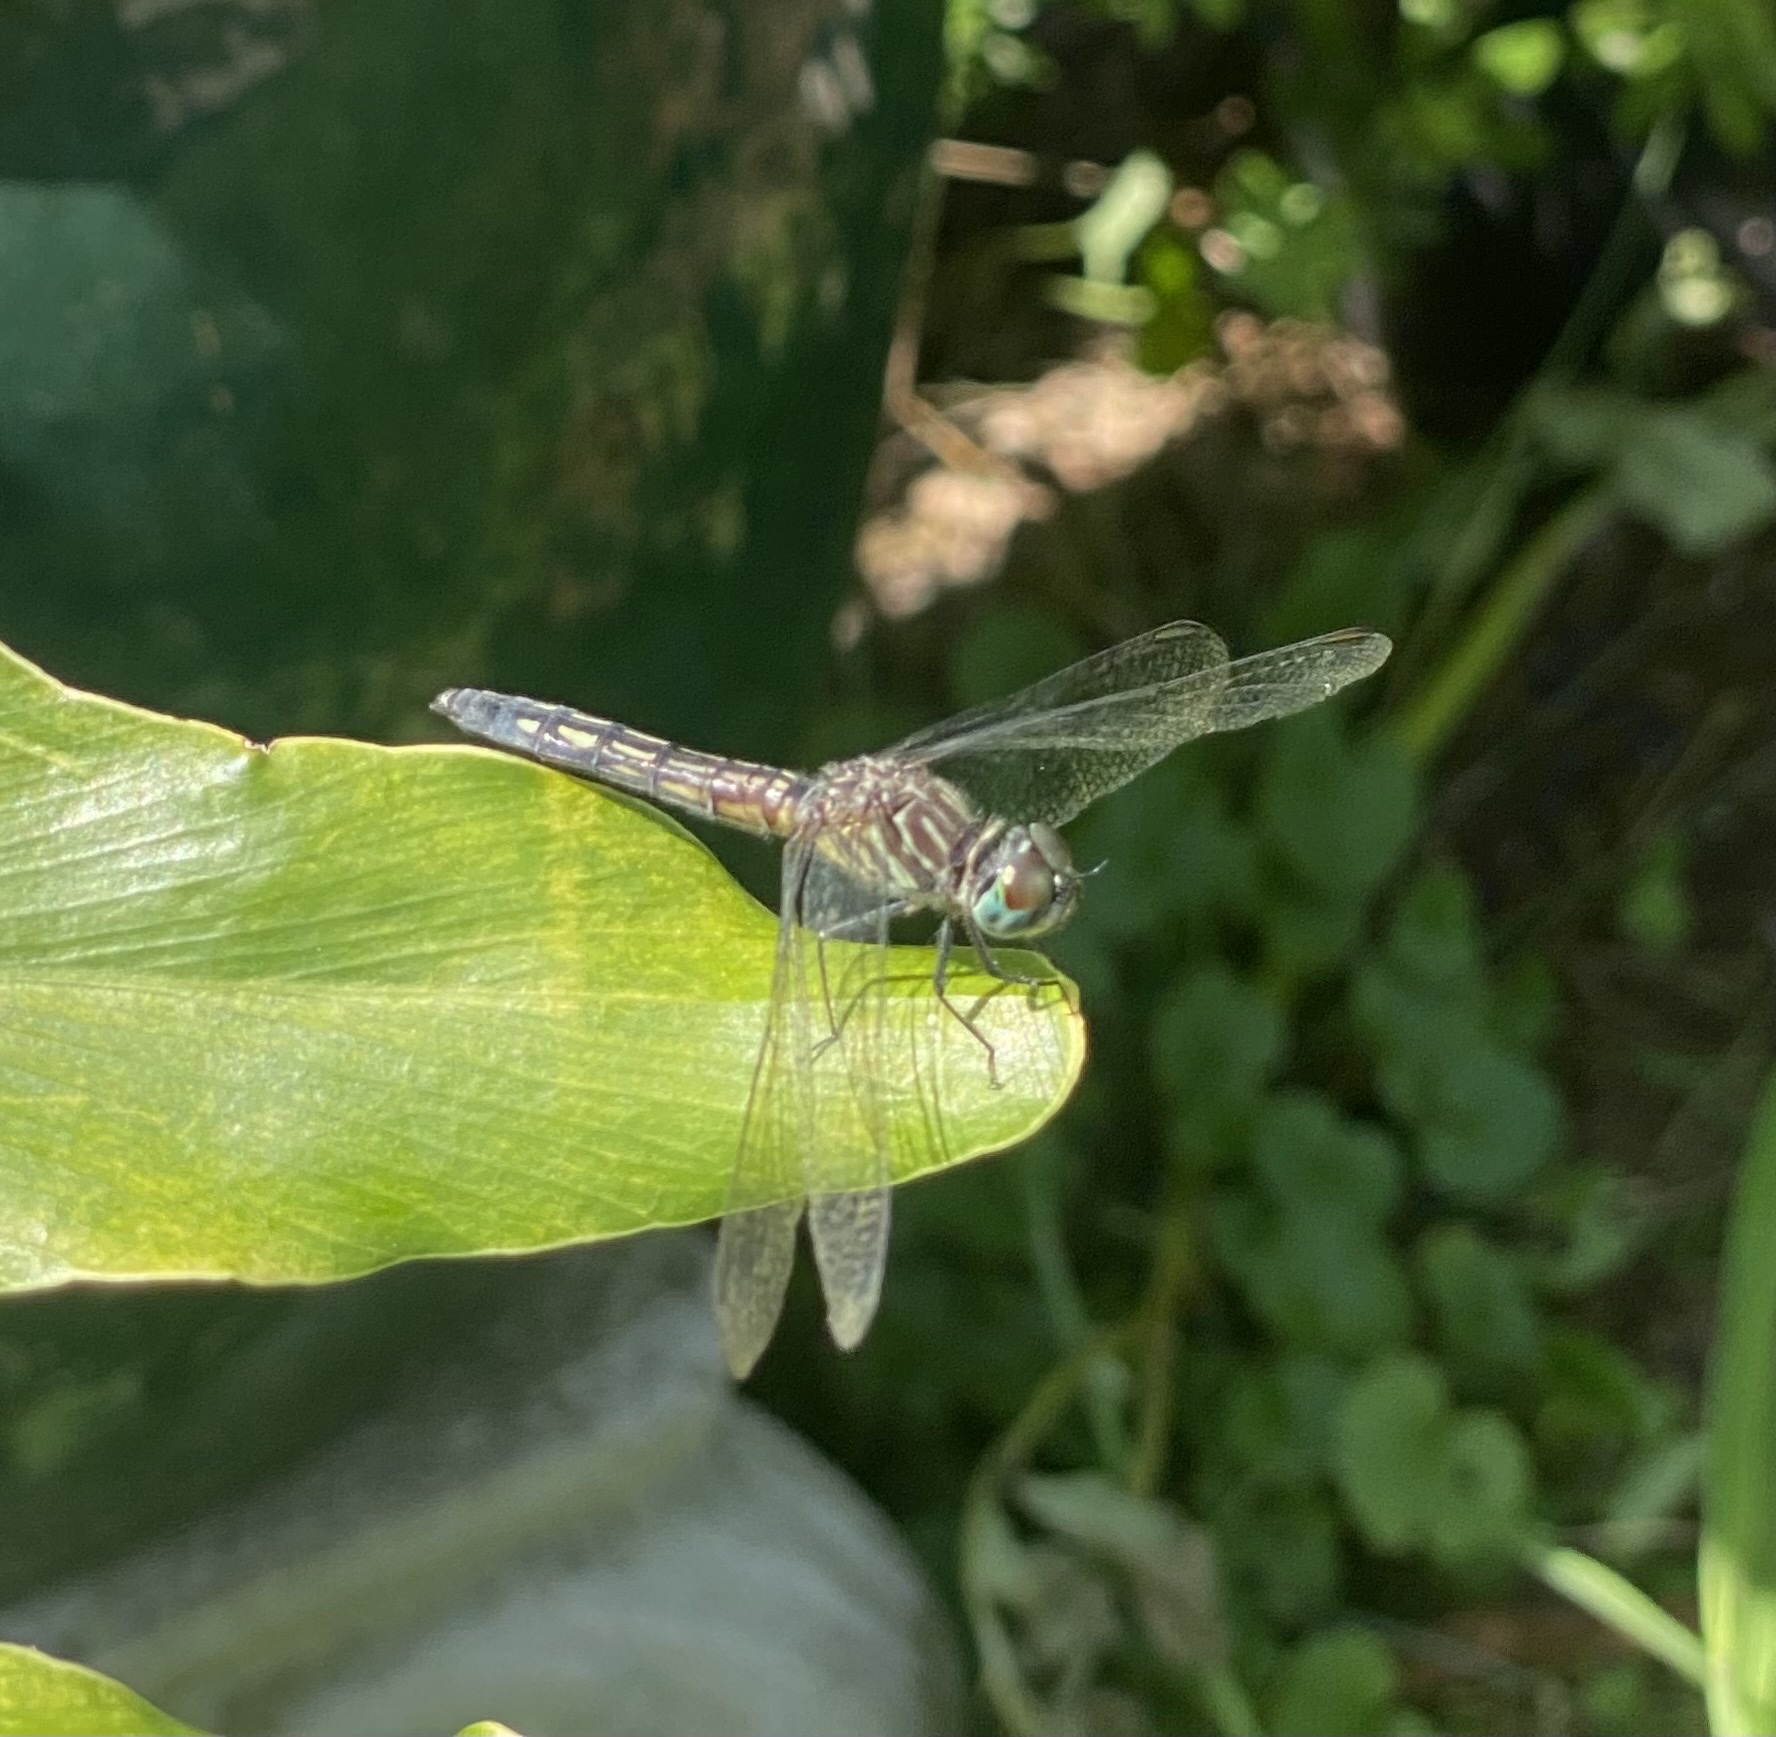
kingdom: Animalia
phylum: Arthropoda
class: Insecta
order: Odonata
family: Libellulidae
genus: Pachydiplax
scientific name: Pachydiplax longipennis
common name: Blue dasher
